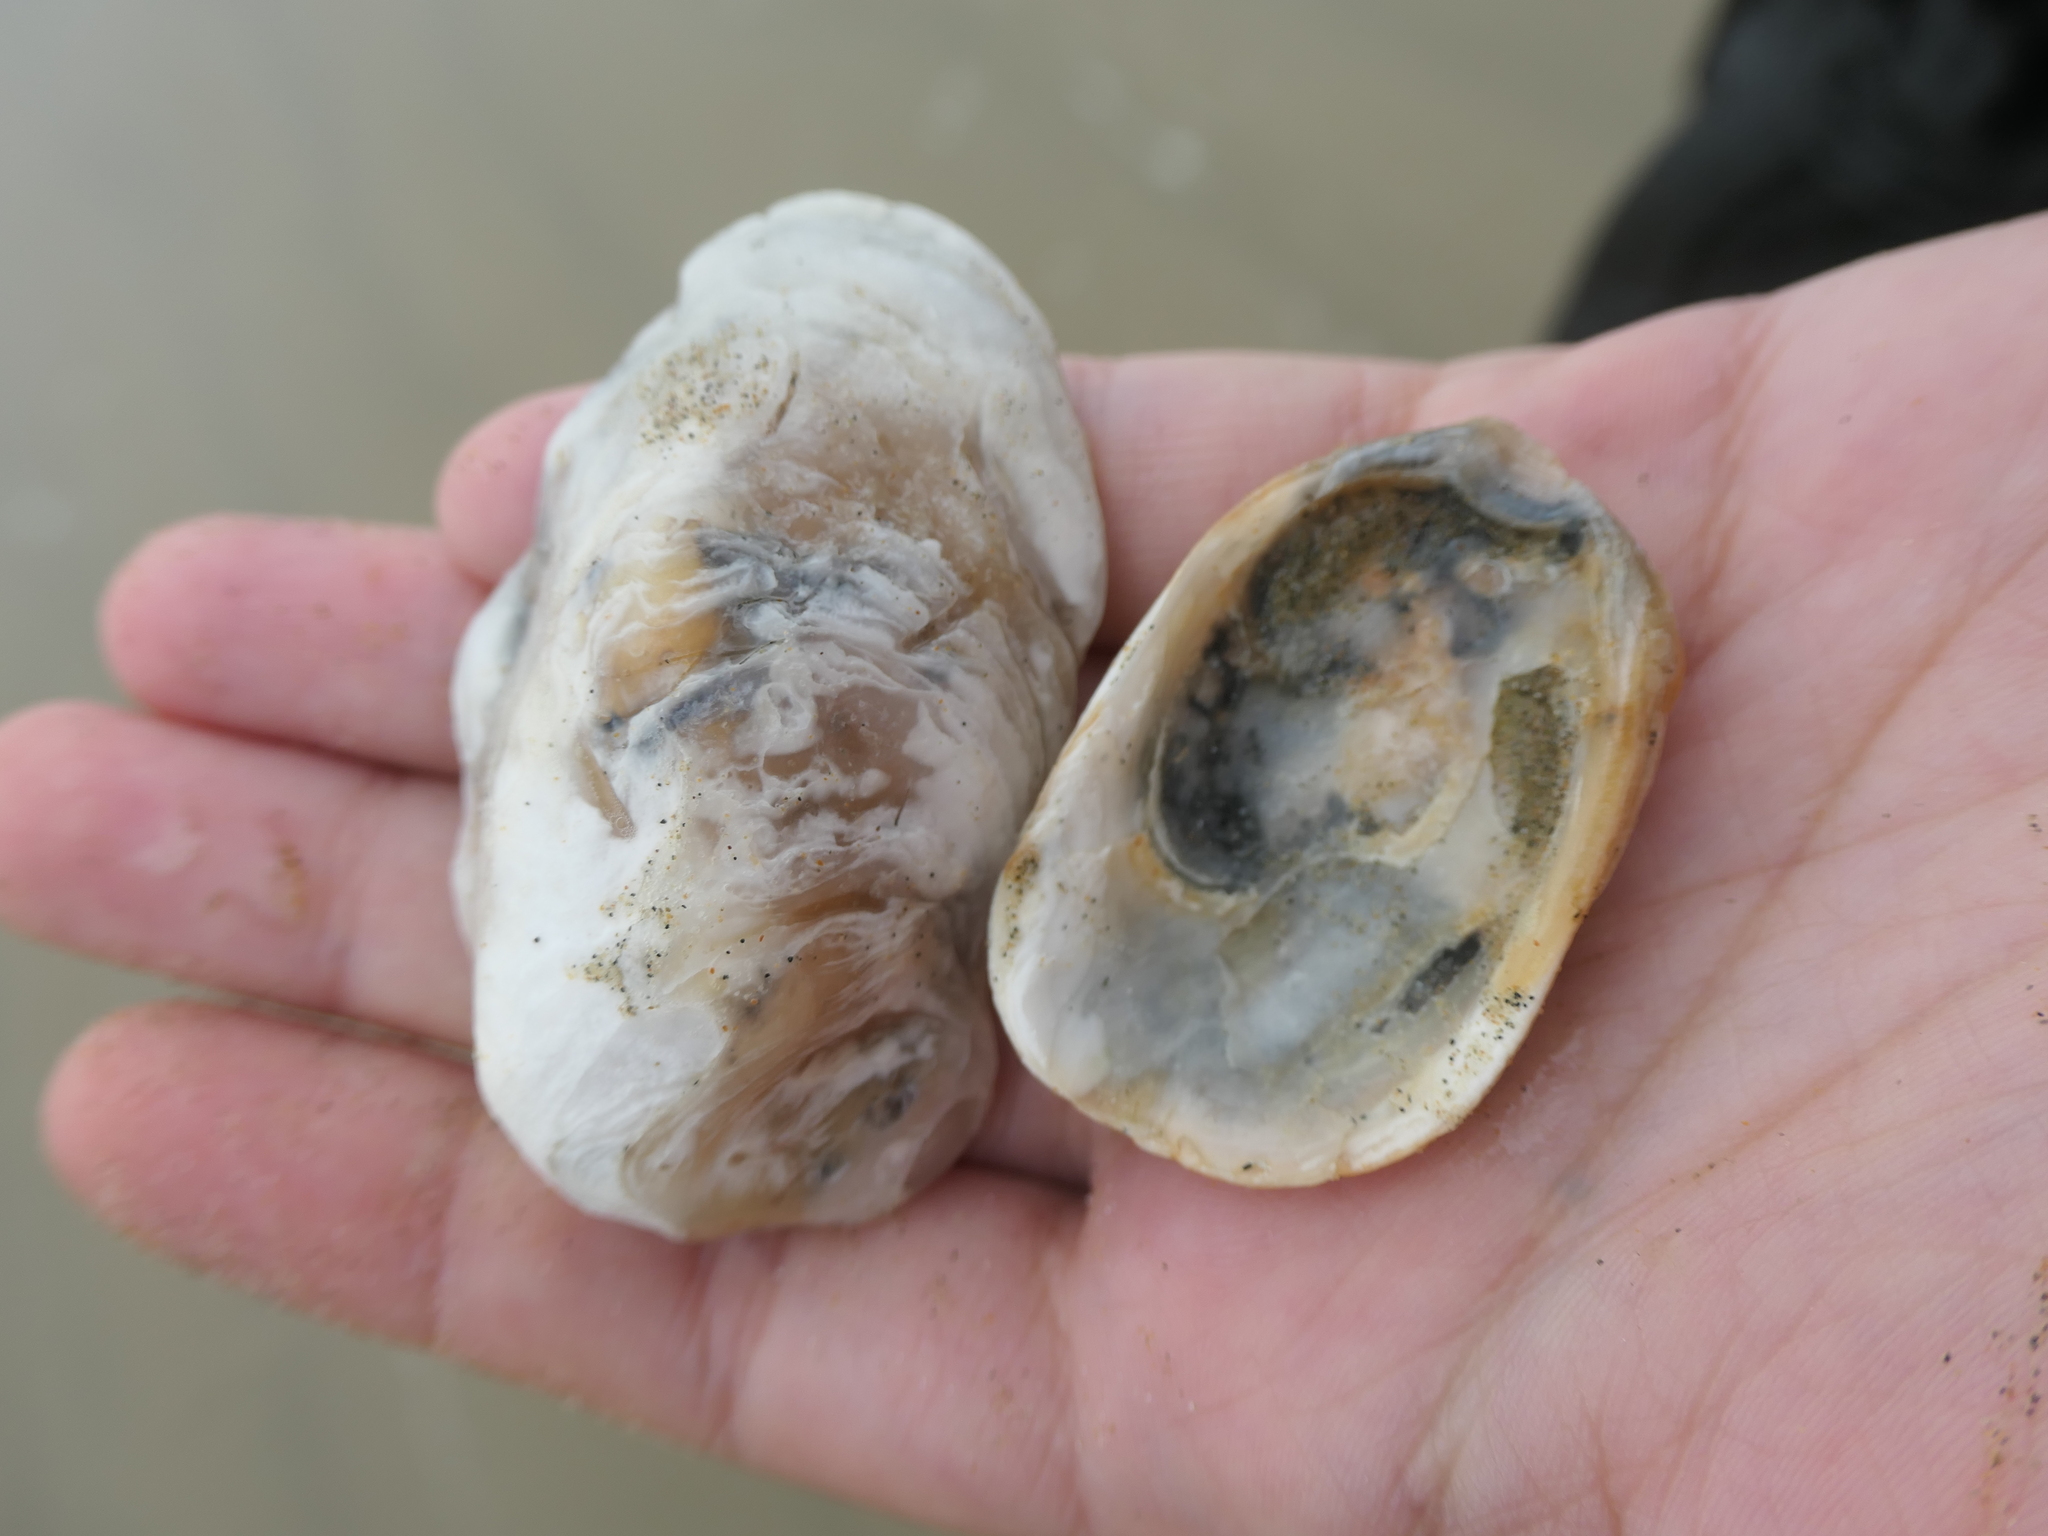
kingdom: Animalia
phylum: Mollusca
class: Bivalvia
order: Ostreida
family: Ostreidae
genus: Ostrea
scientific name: Ostrea chilensis
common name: Chilean oyster
